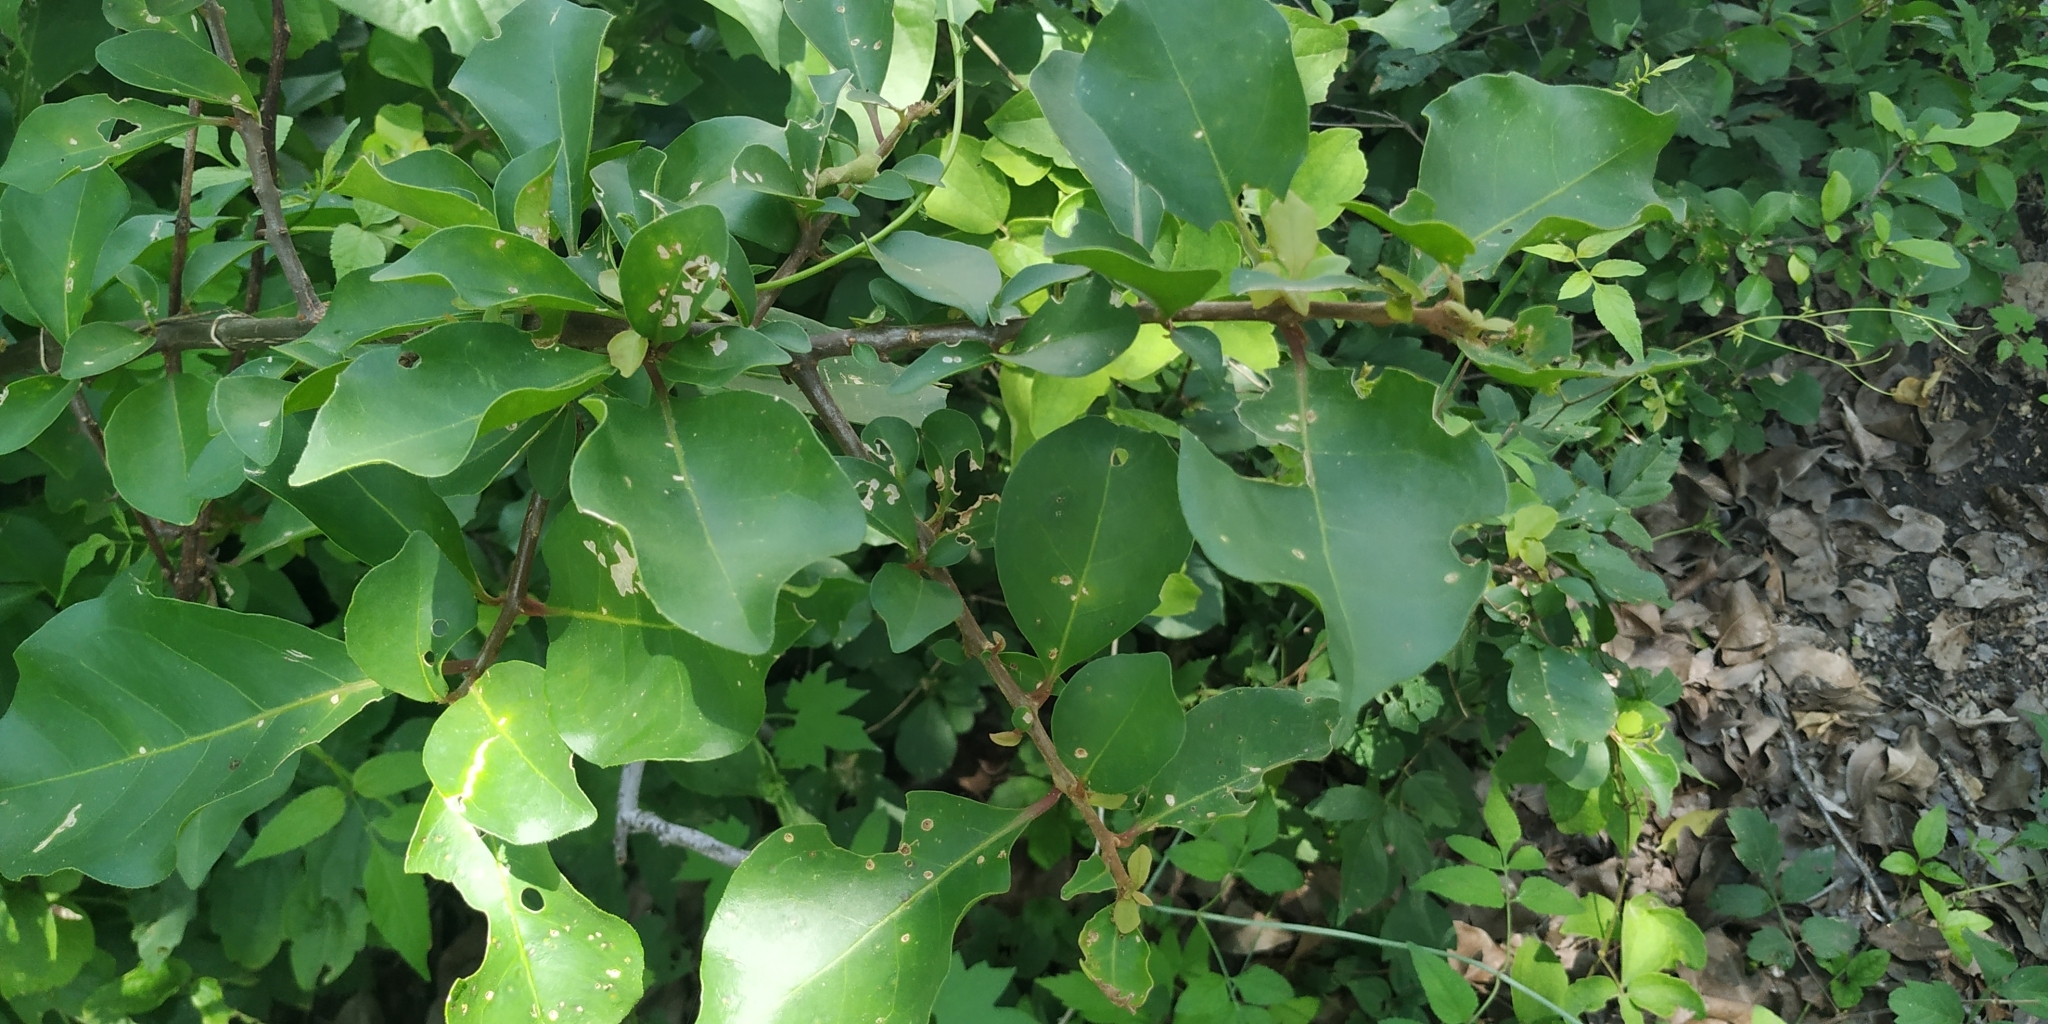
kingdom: Plantae
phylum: Tracheophyta
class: Magnoliopsida
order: Caryophyllales
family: Nyctaginaceae
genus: Pisonia
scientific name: Pisonia aculeata
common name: Cockspur vine
